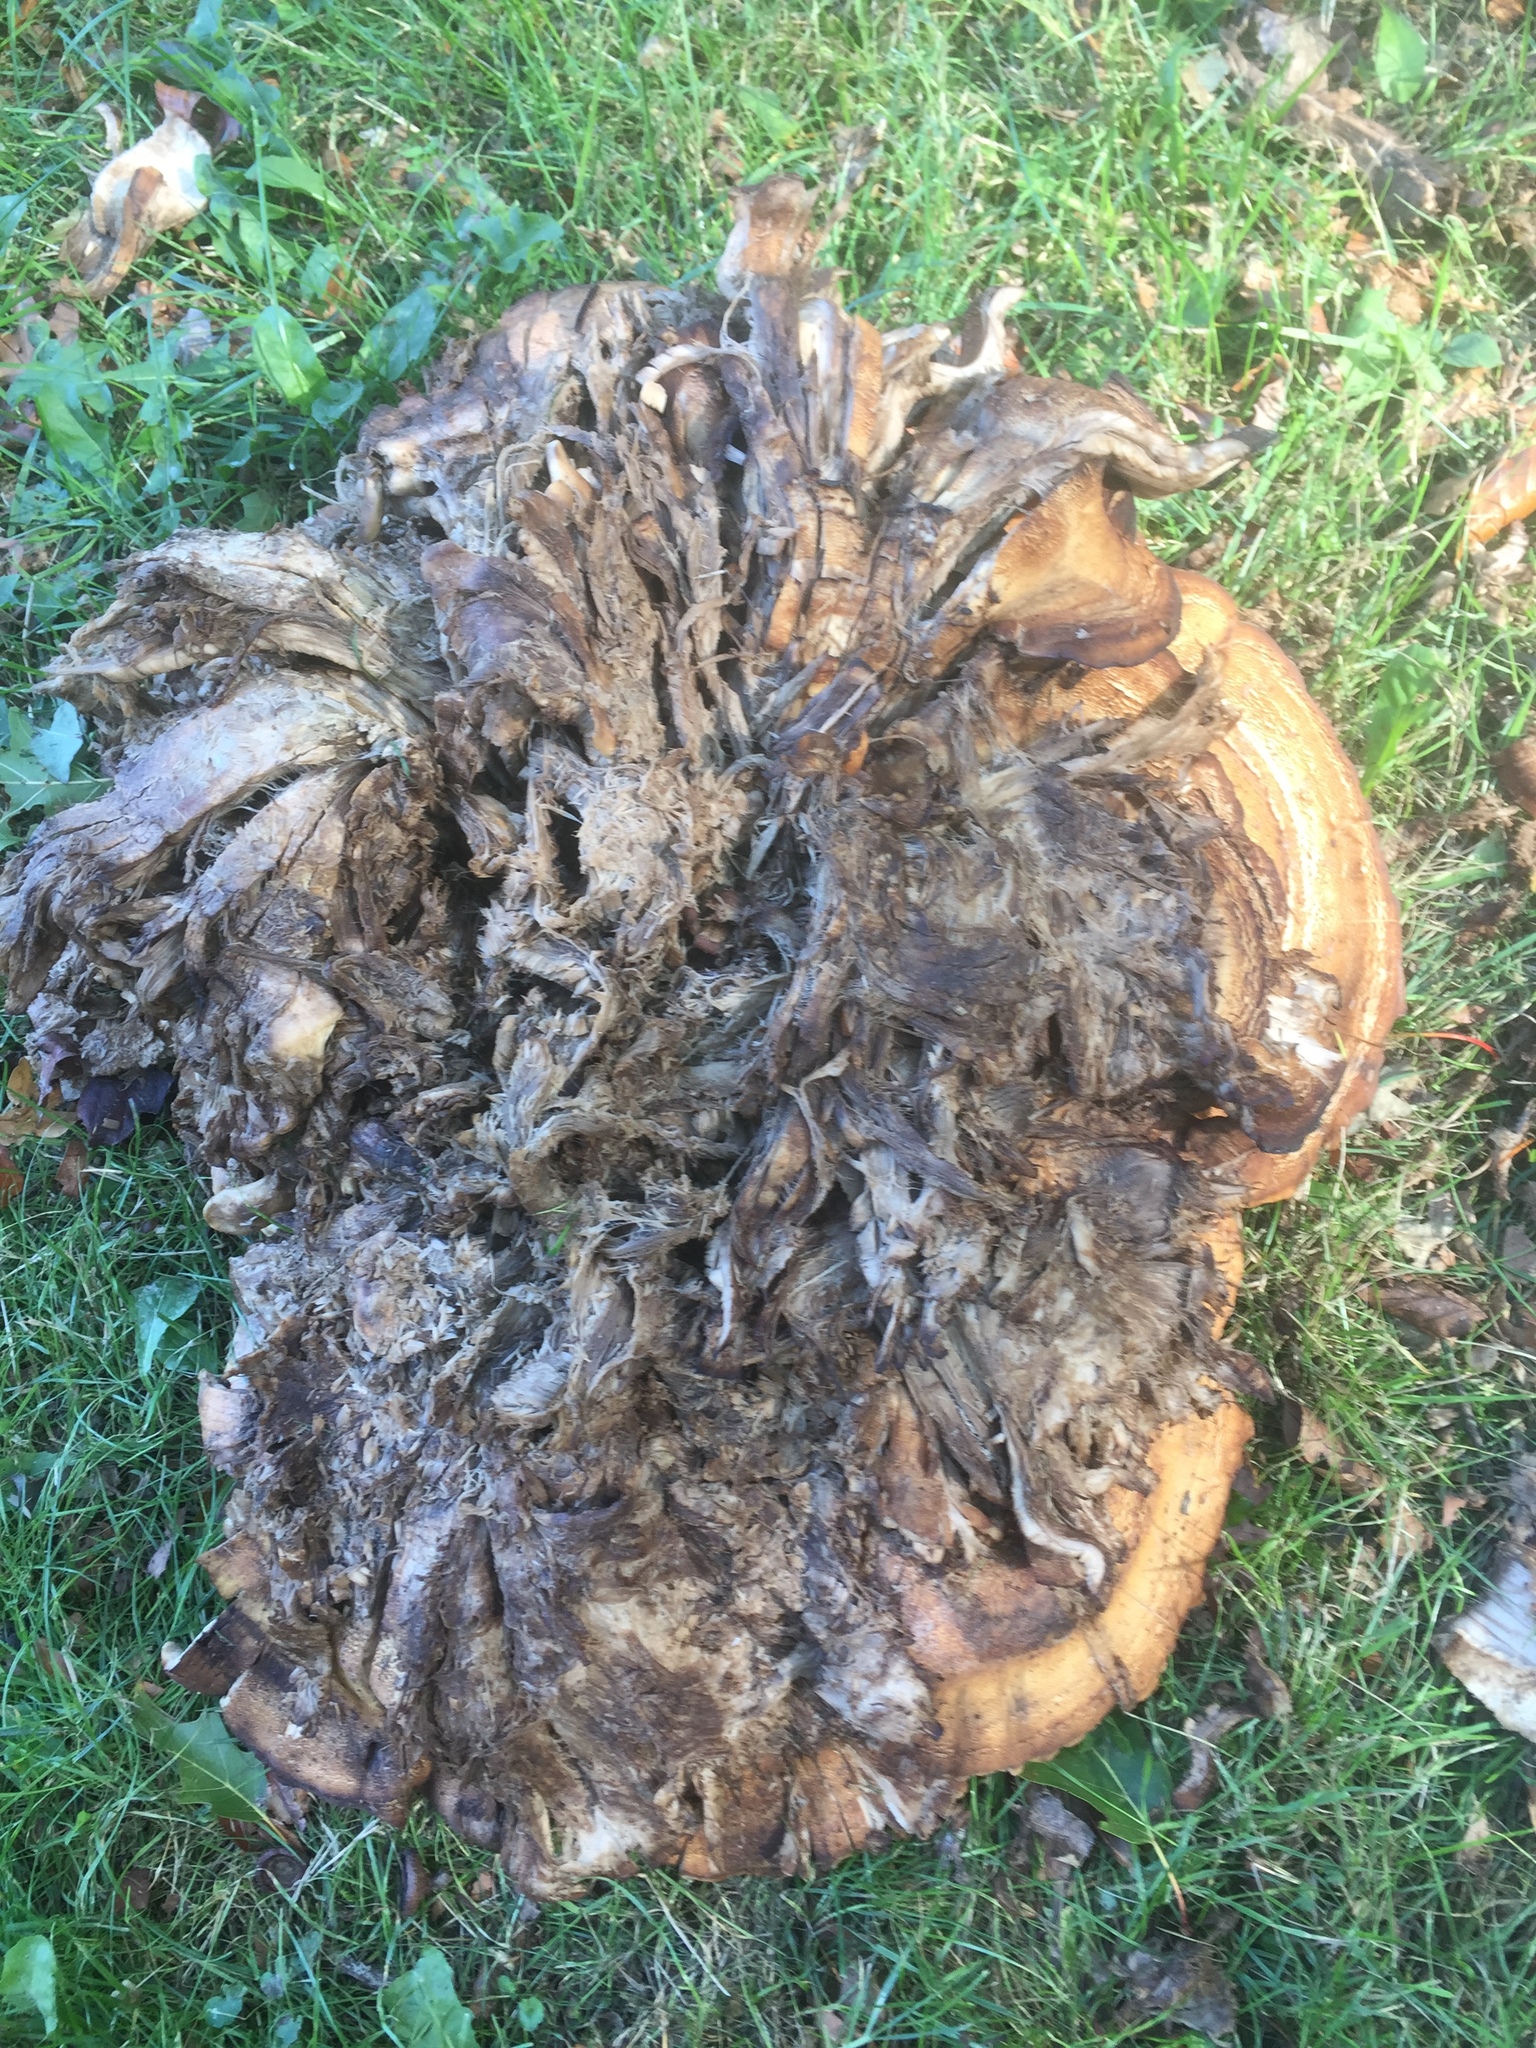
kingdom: Fungi
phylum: Basidiomycota
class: Agaricomycetes
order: Polyporales
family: Meripilaceae
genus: Meripilus
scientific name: Meripilus giganteus
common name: Giant polypore
